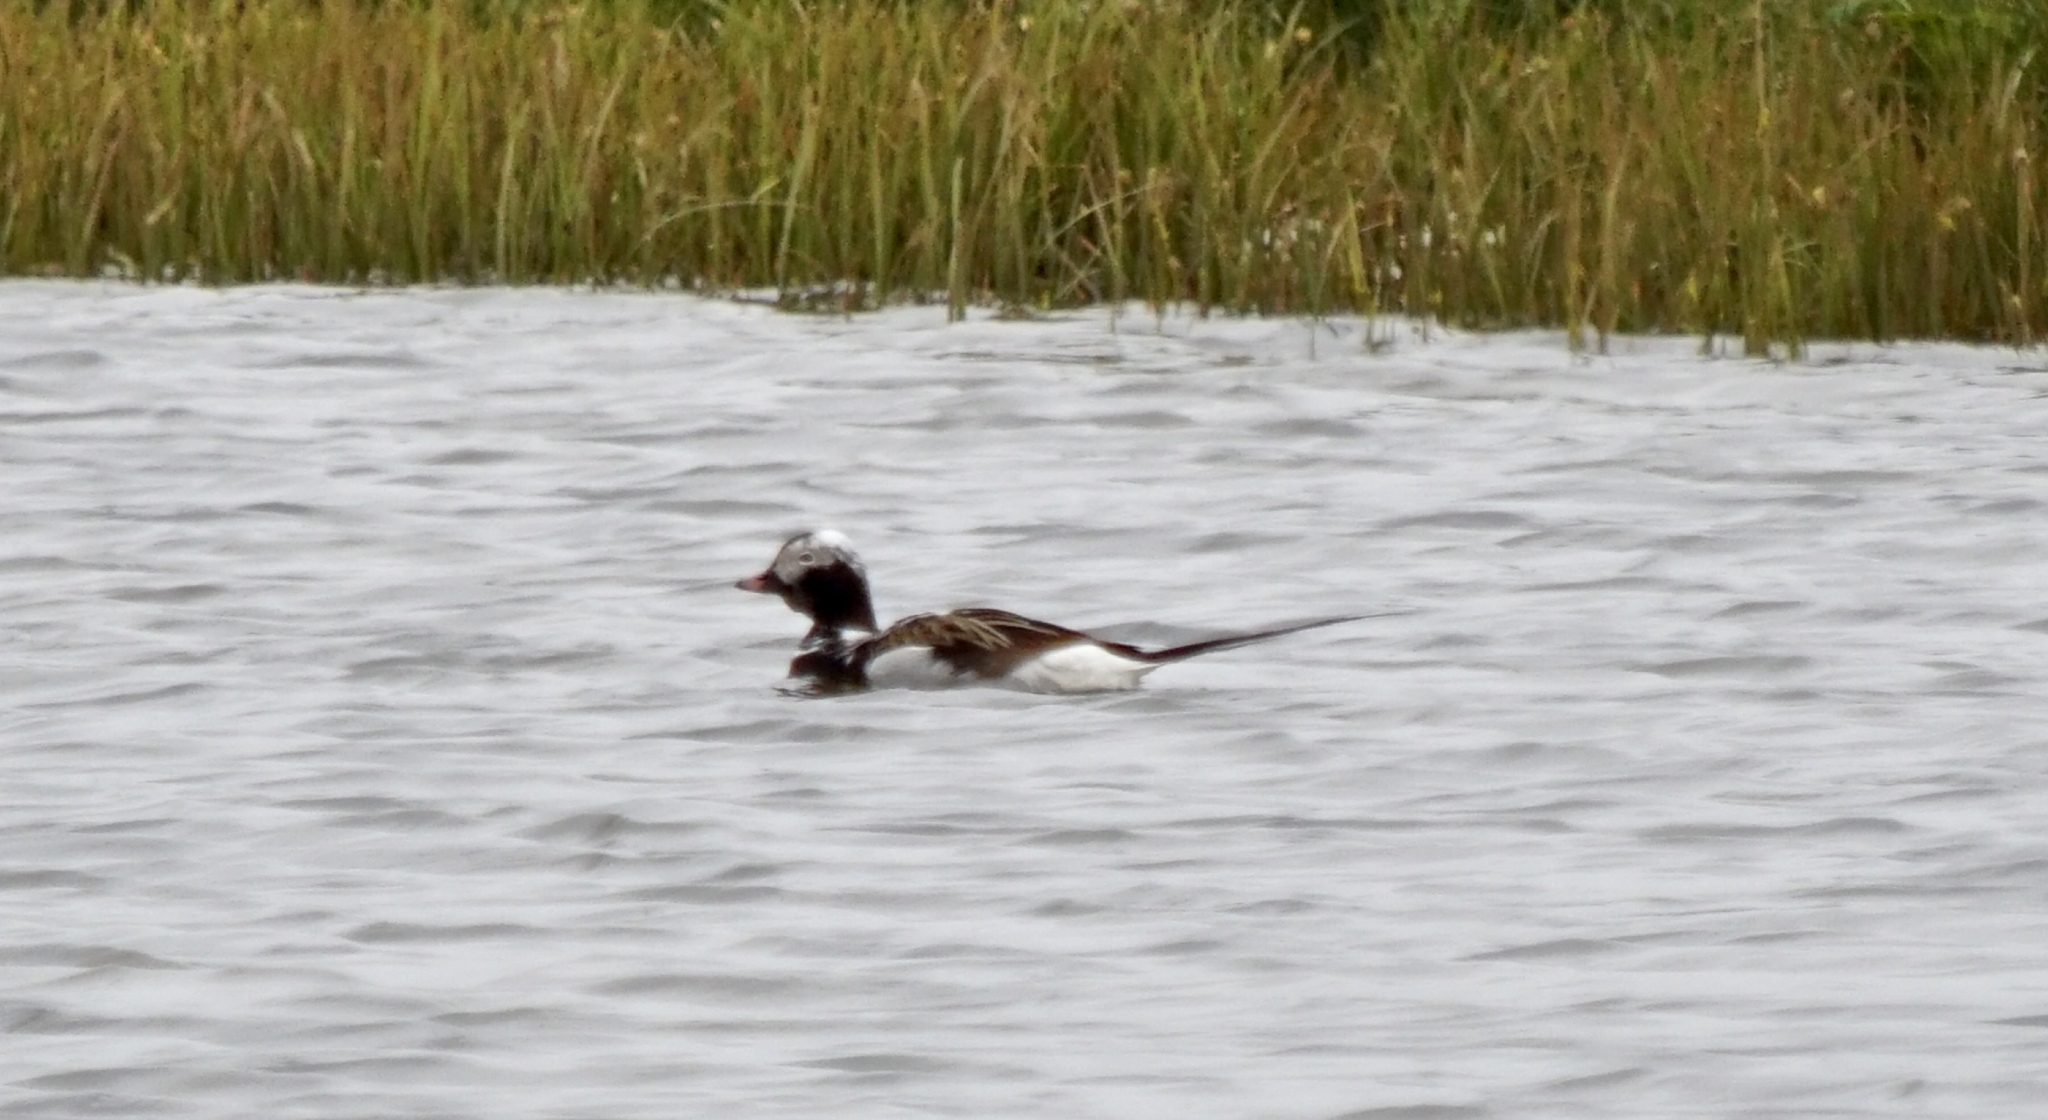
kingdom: Animalia
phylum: Chordata
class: Aves
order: Anseriformes
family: Anatidae
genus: Clangula
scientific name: Clangula hyemalis
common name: Long-tailed duck
